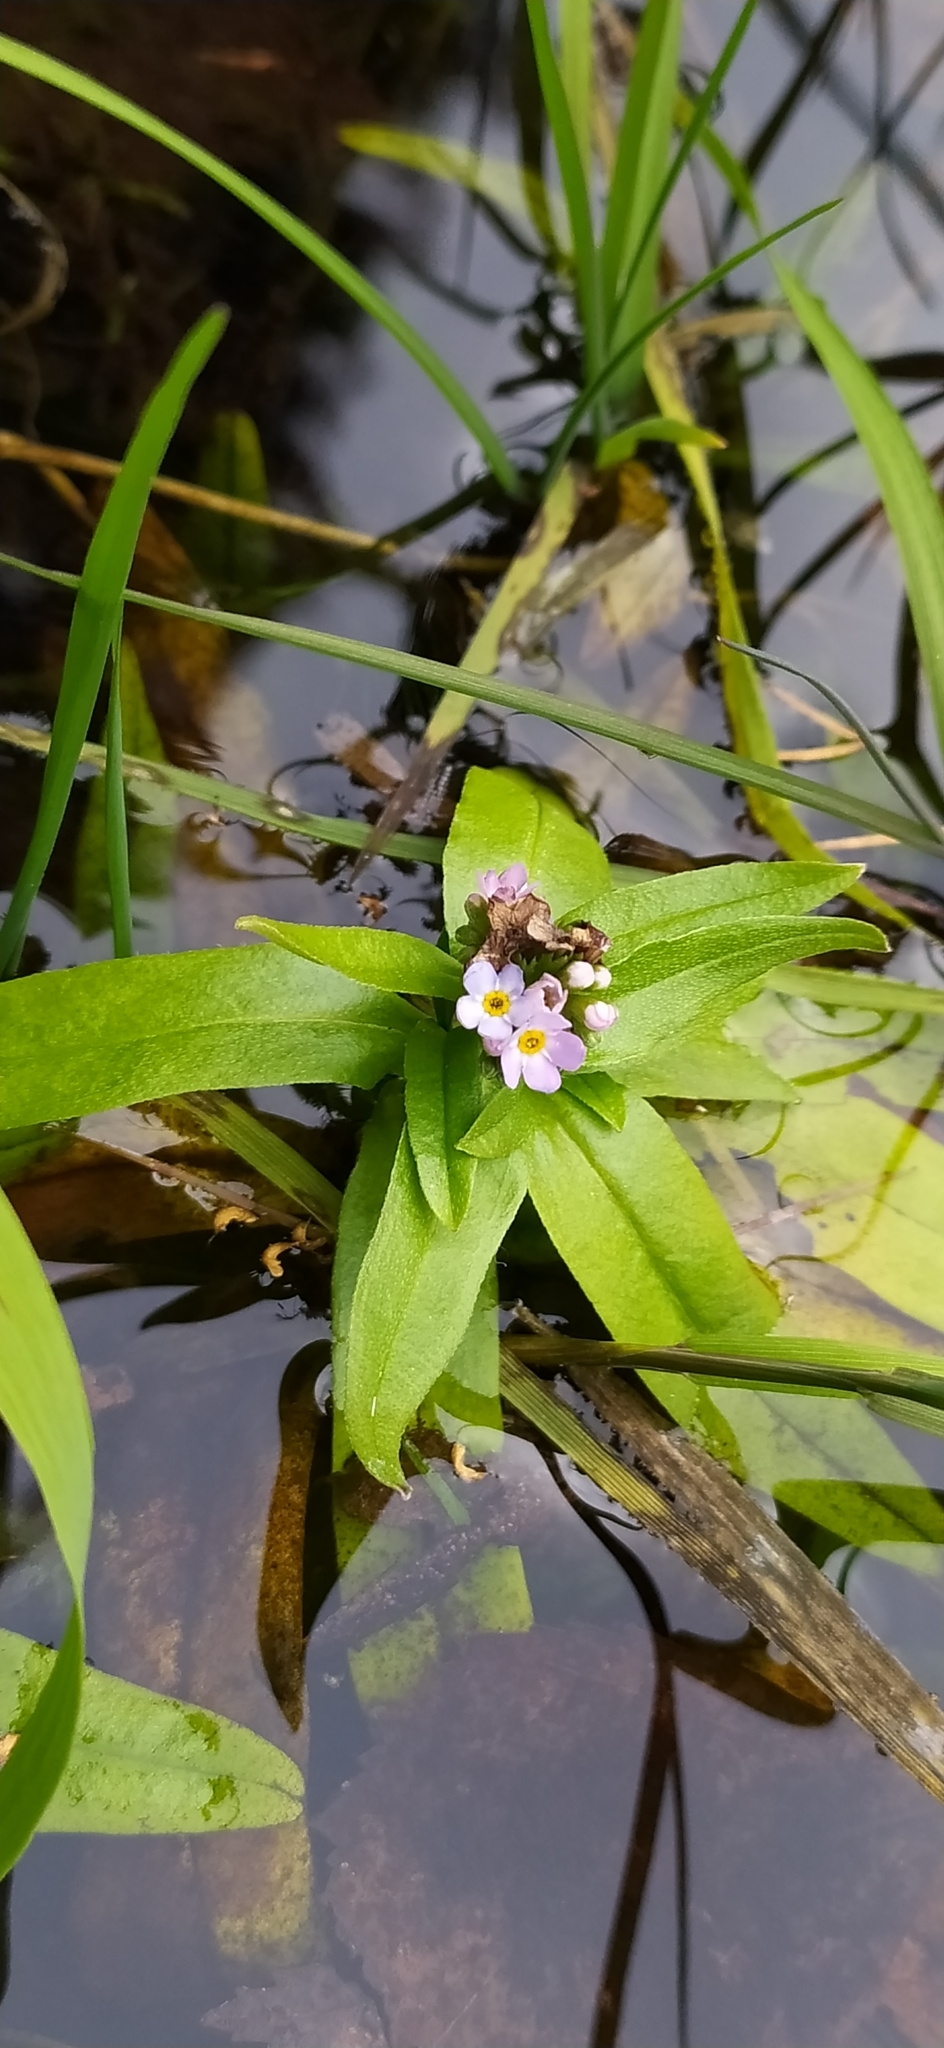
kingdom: Plantae
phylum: Tracheophyta
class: Magnoliopsida
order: Boraginales
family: Boraginaceae
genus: Myosotis
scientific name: Myosotis scorpioides
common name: Water forget-me-not
